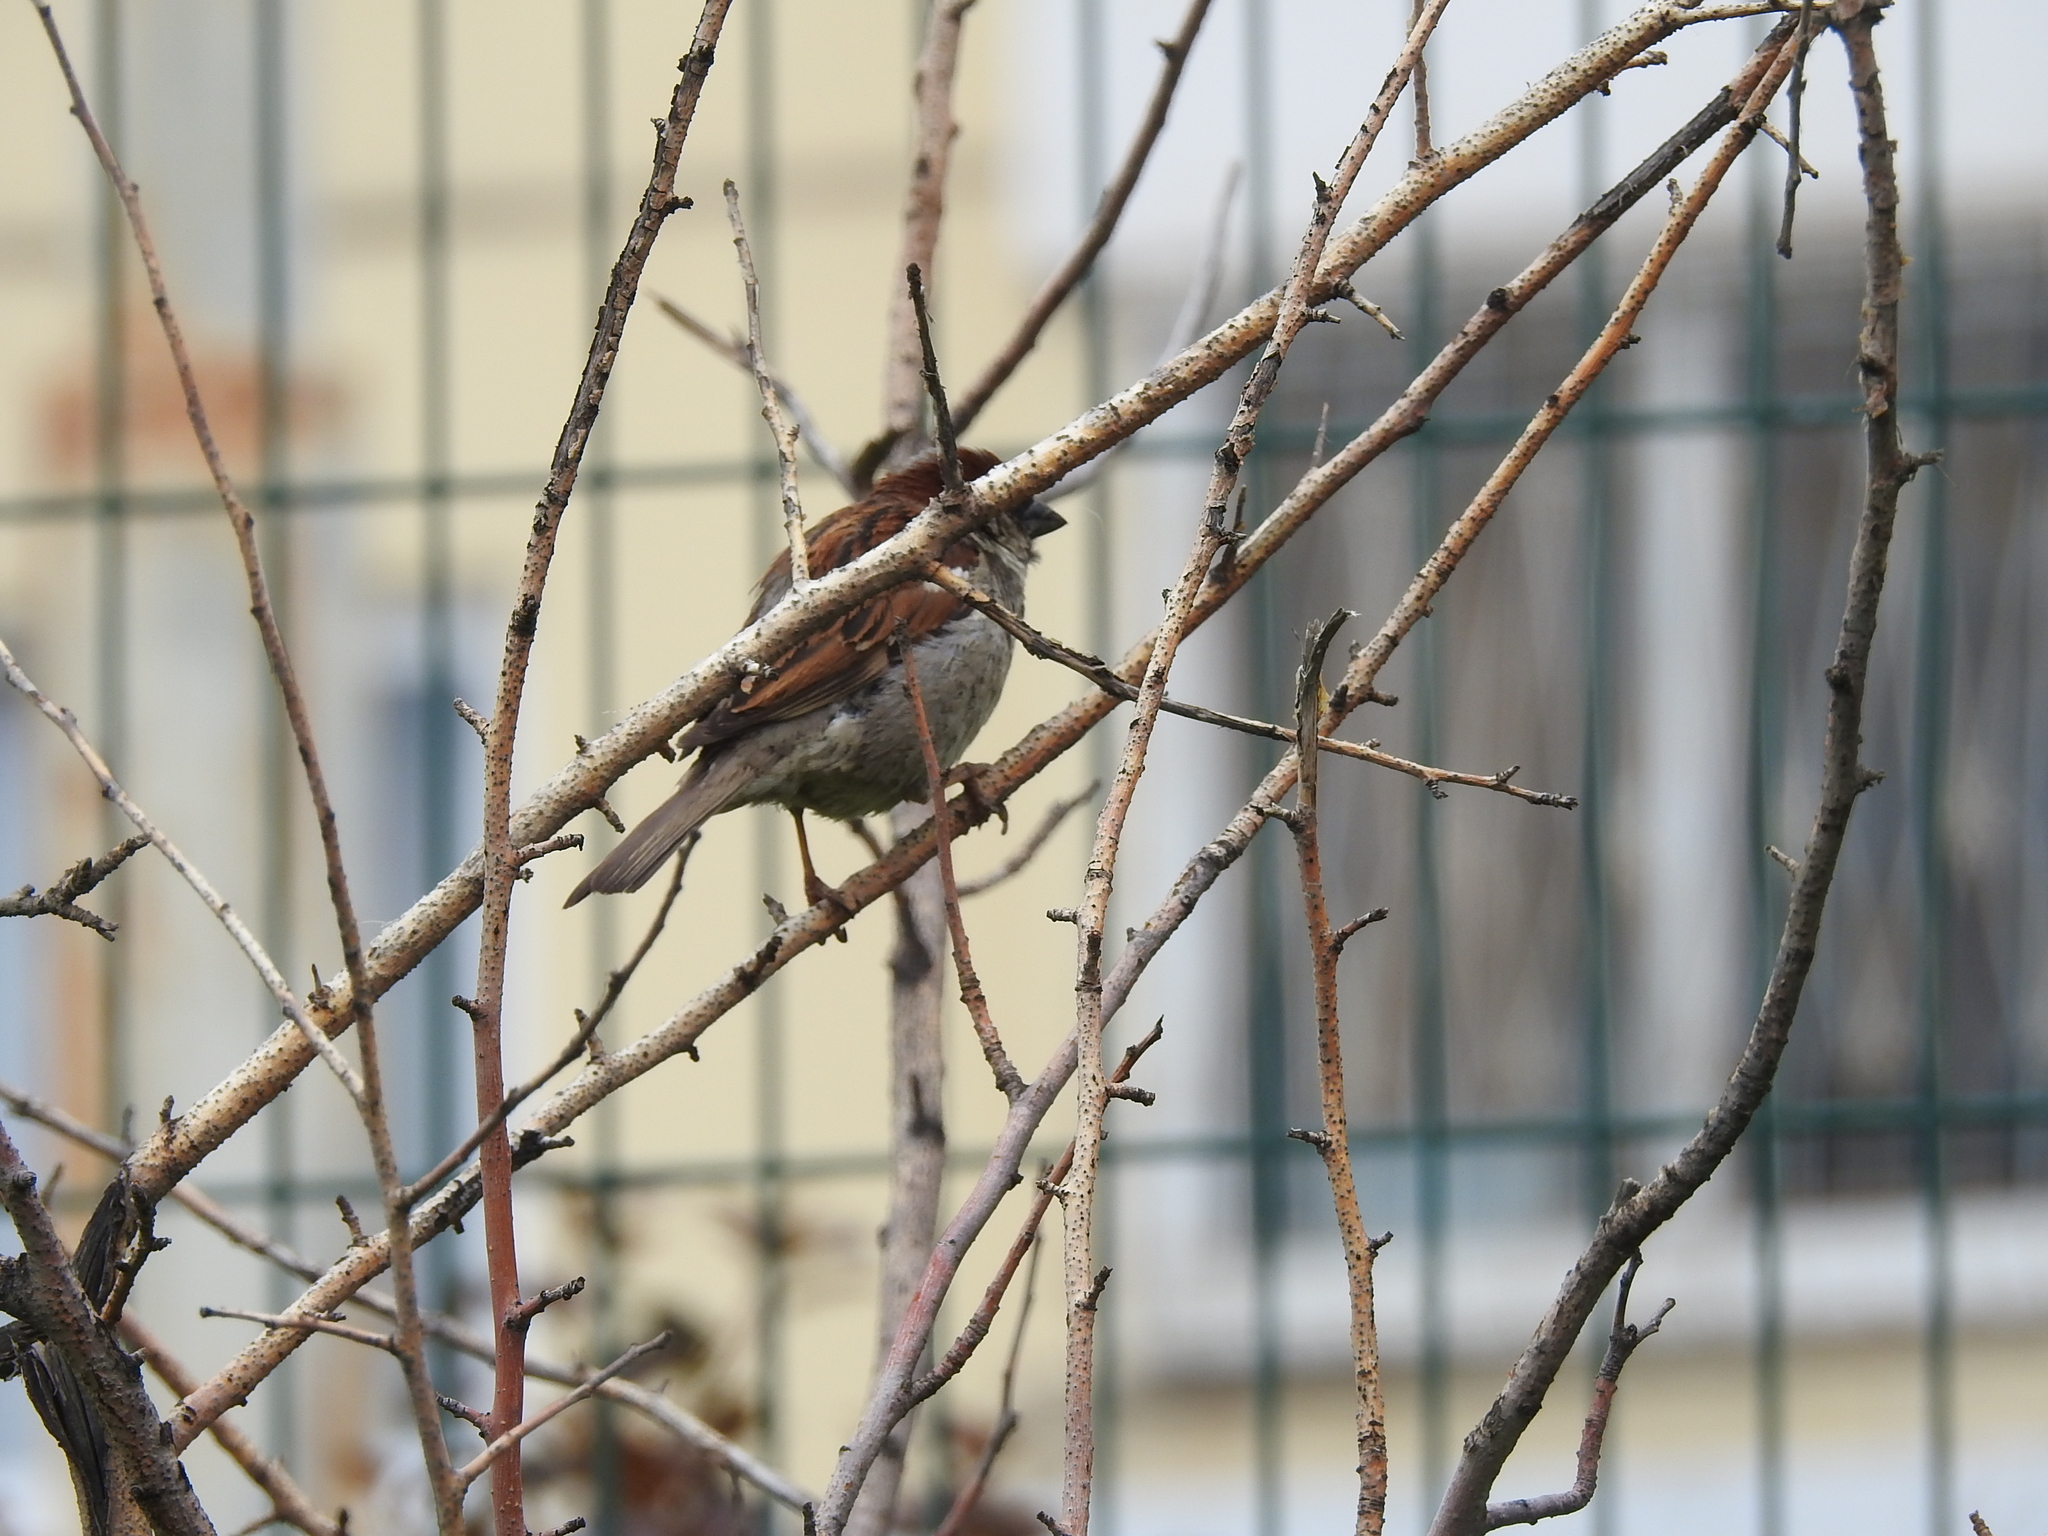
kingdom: Animalia
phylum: Chordata
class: Aves
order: Passeriformes
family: Passeridae
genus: Passer
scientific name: Passer domesticus
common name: House sparrow
